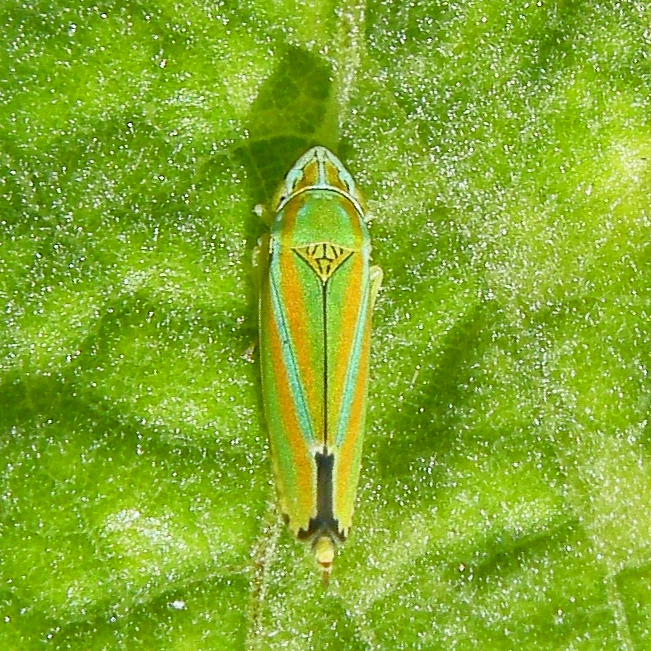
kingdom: Animalia
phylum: Arthropoda
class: Insecta
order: Hemiptera
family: Cicadellidae
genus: Graphocephala
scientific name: Graphocephala versuta
